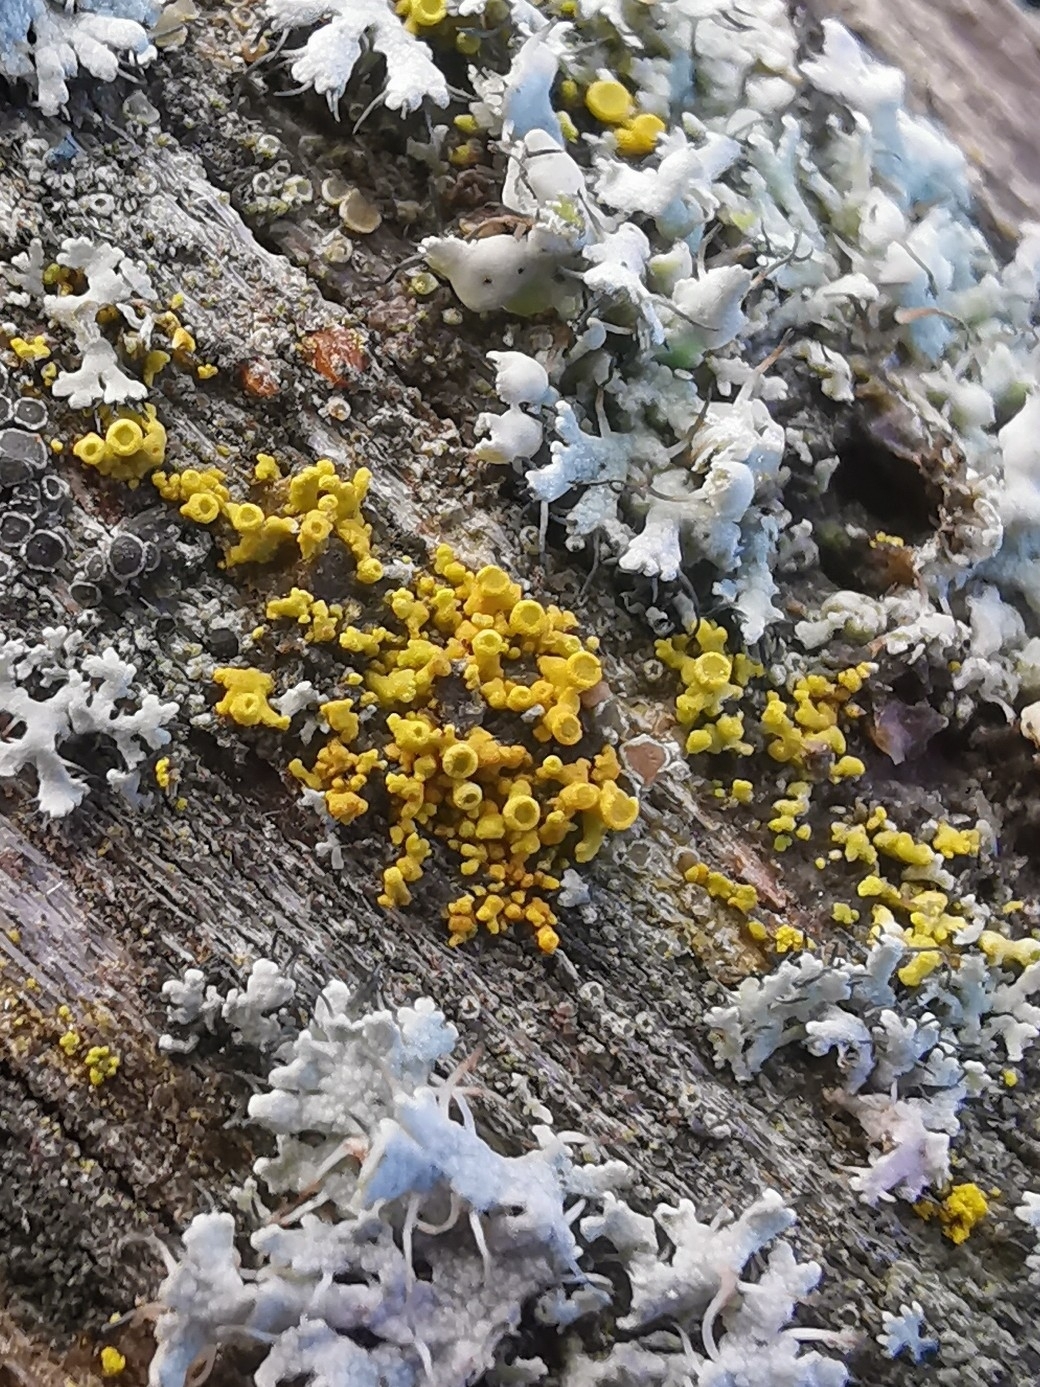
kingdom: Fungi
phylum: Ascomycota
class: Lecanoromycetes
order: Teloschistales
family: Teloschistaceae
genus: Polycauliona
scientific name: Polycauliona polycarpa
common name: Pin-cushion sunburst lichen
